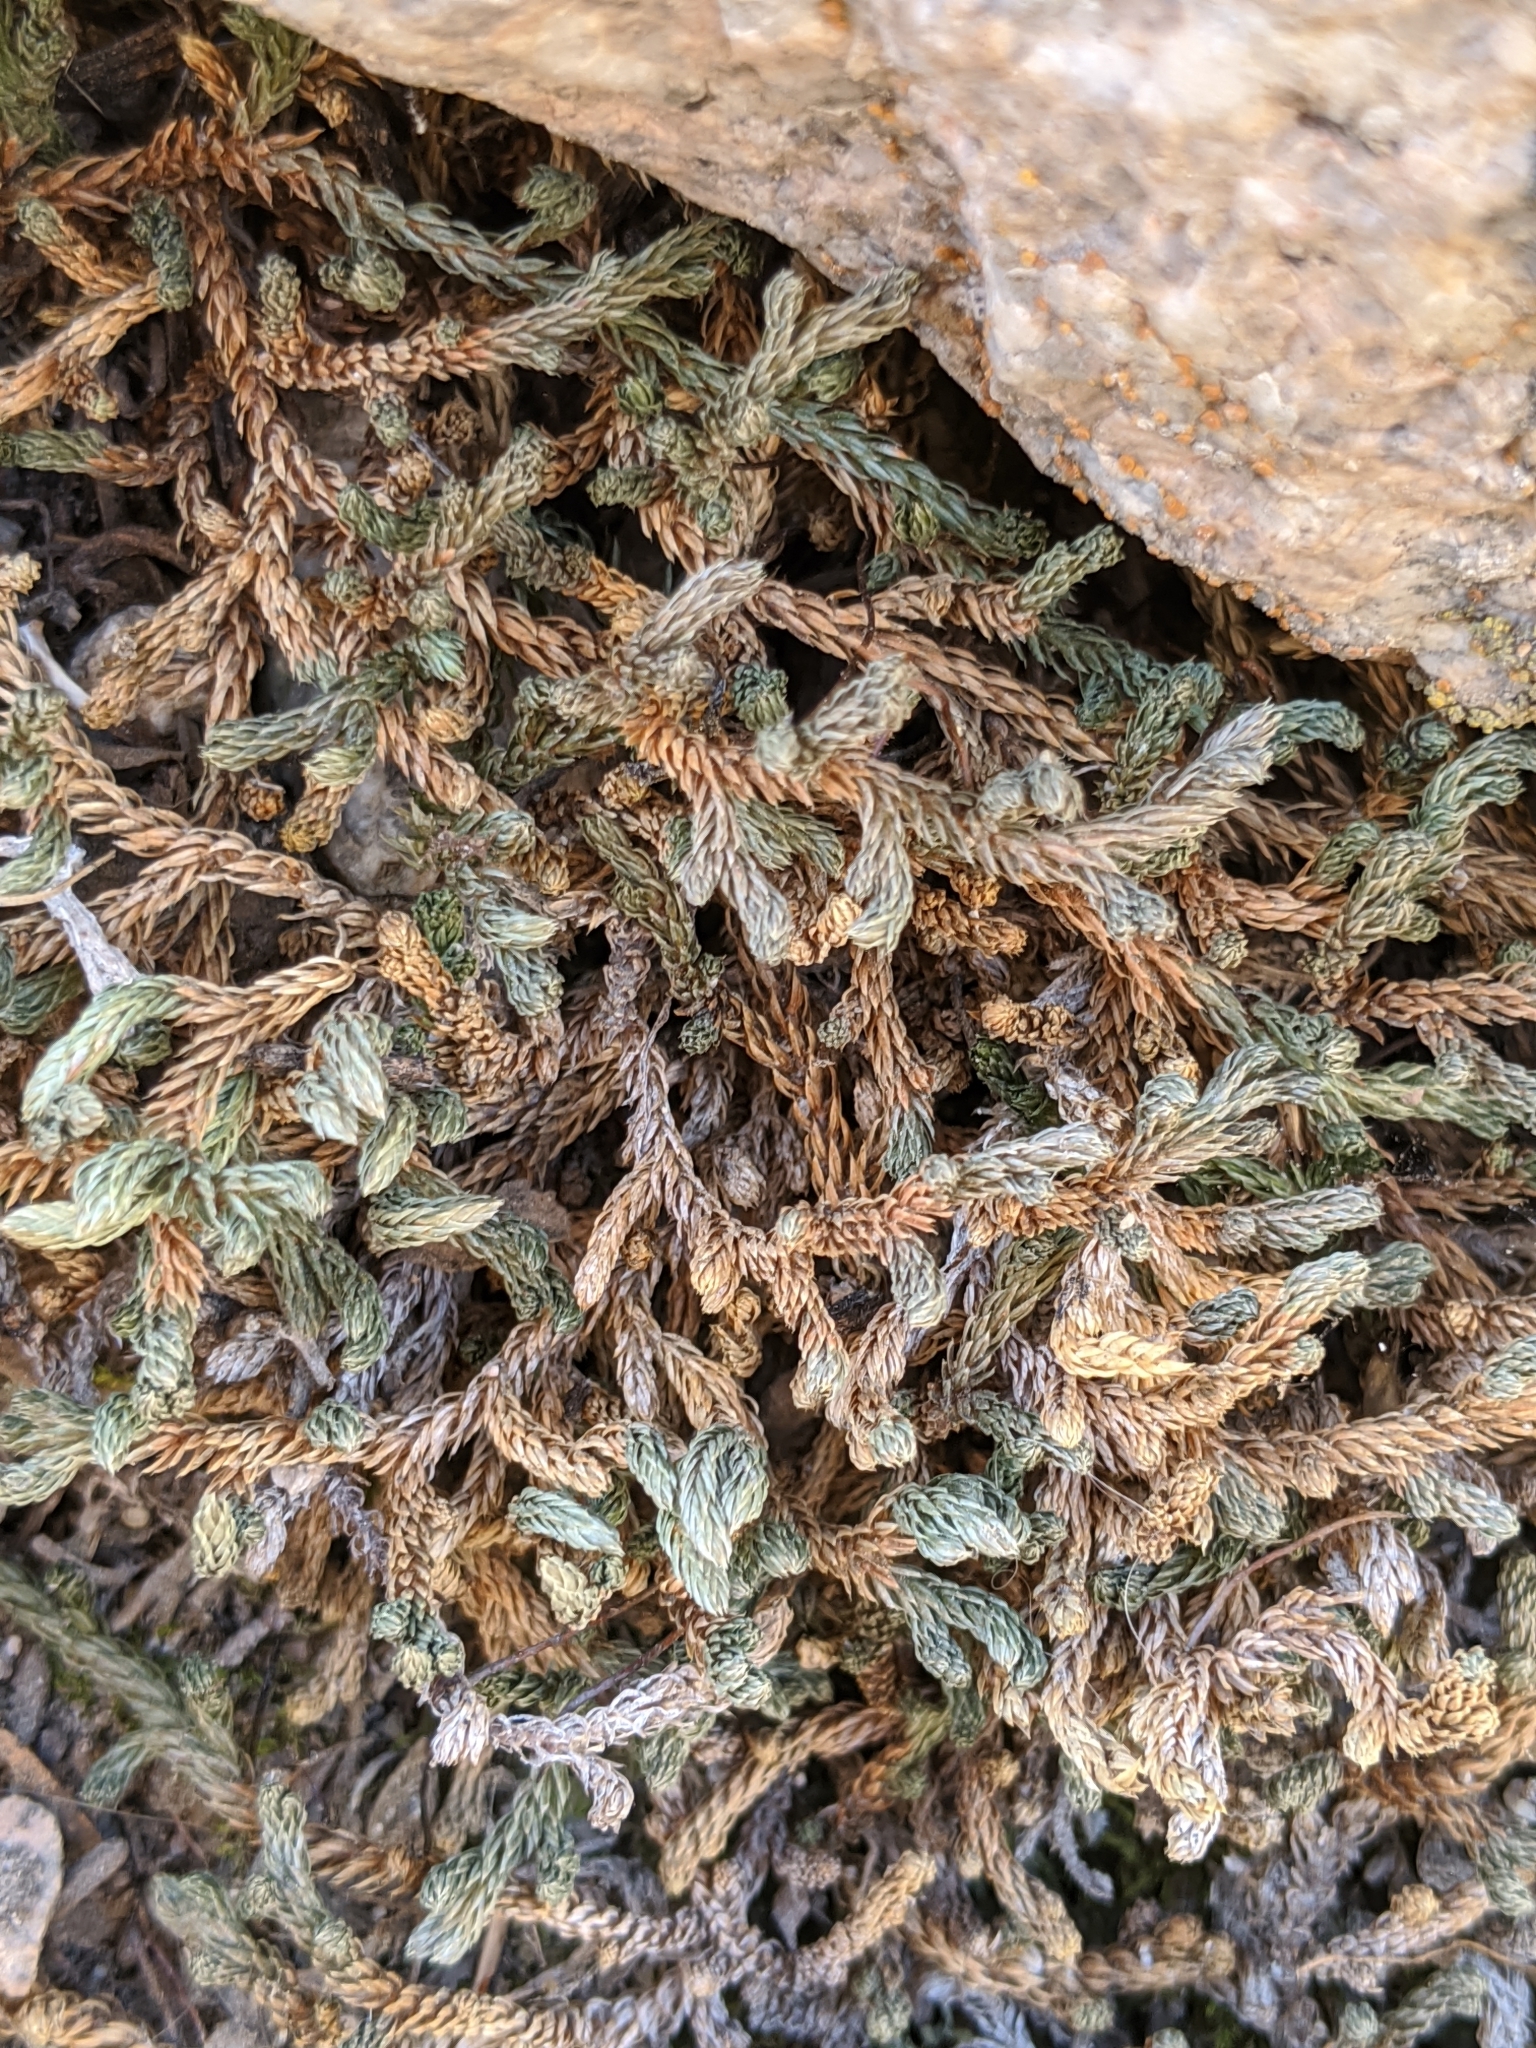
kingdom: Plantae
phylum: Tracheophyta
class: Lycopodiopsida
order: Selaginellales
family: Selaginellaceae
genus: Selaginella
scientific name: Selaginella watsonii
